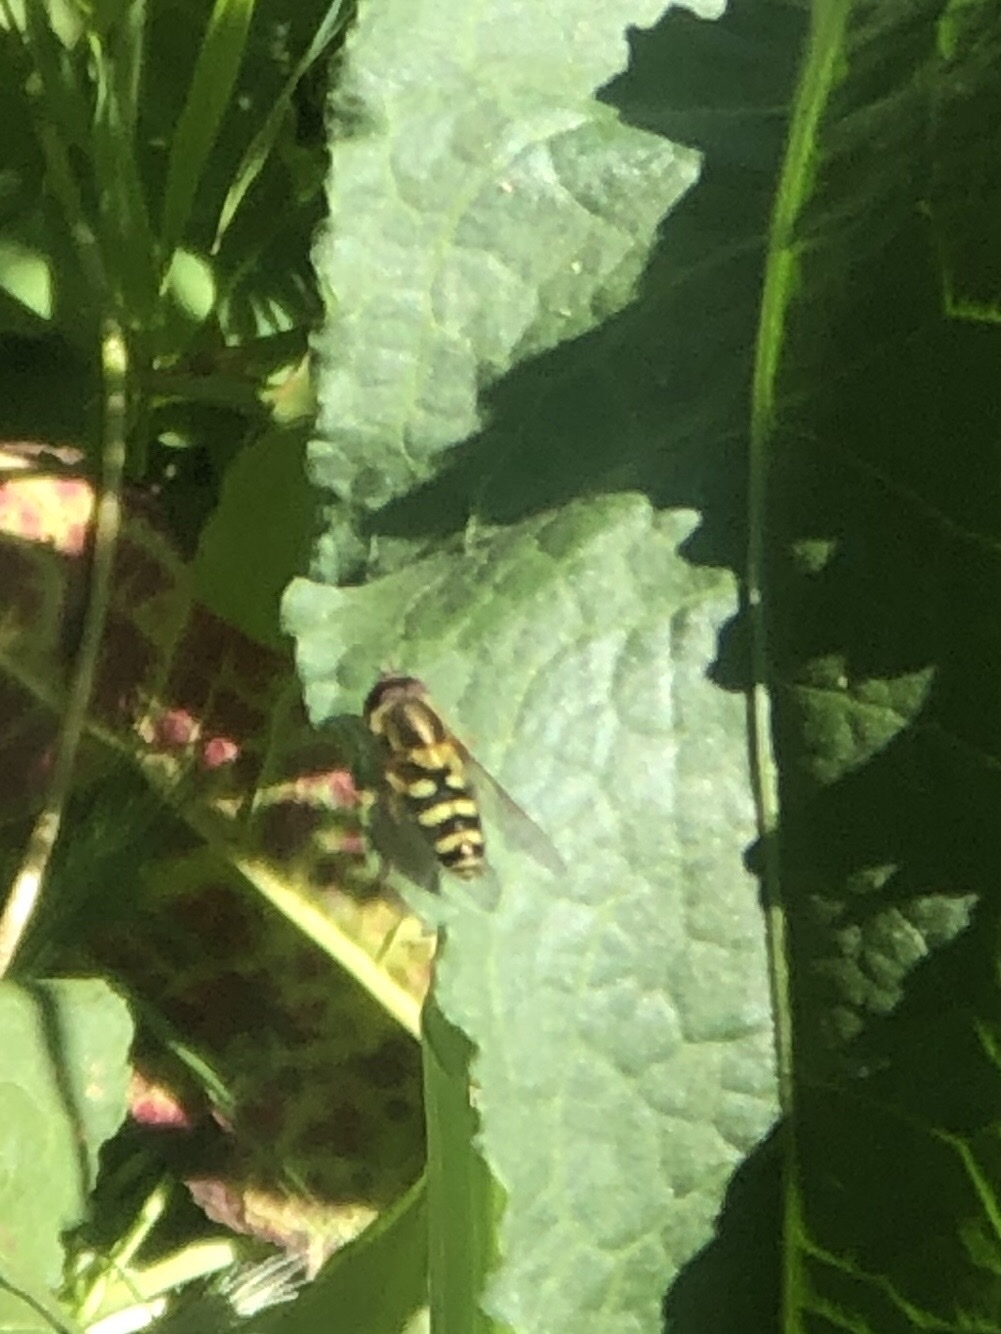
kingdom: Animalia
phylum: Arthropoda
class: Insecta
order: Diptera
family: Syrphidae
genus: Syrphus
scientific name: Syrphus opinator
